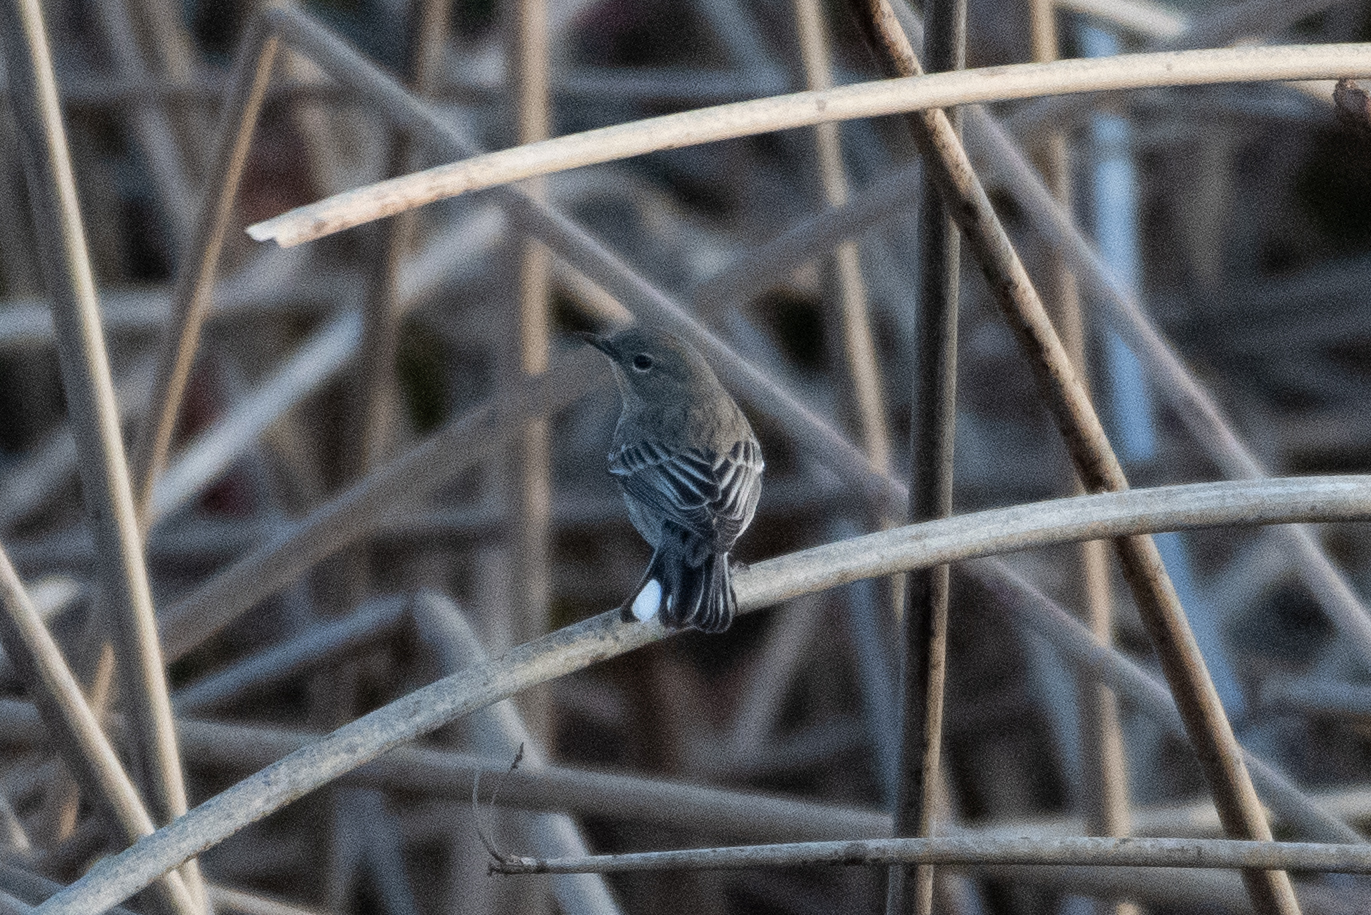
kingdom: Animalia
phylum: Chordata
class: Aves
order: Passeriformes
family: Parulidae
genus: Setophaga
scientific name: Setophaga coronata
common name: Myrtle warbler
